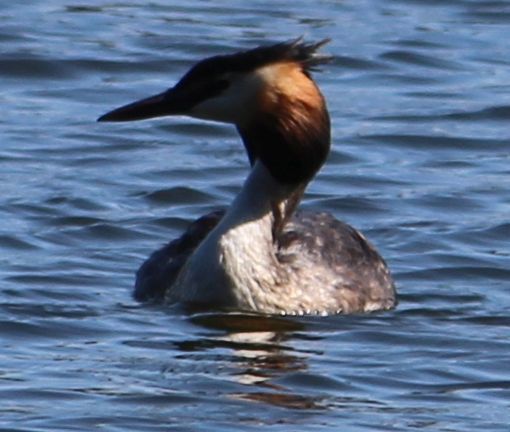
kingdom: Animalia
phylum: Chordata
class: Aves
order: Podicipediformes
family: Podicipedidae
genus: Podiceps
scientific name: Podiceps cristatus
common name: Great crested grebe
